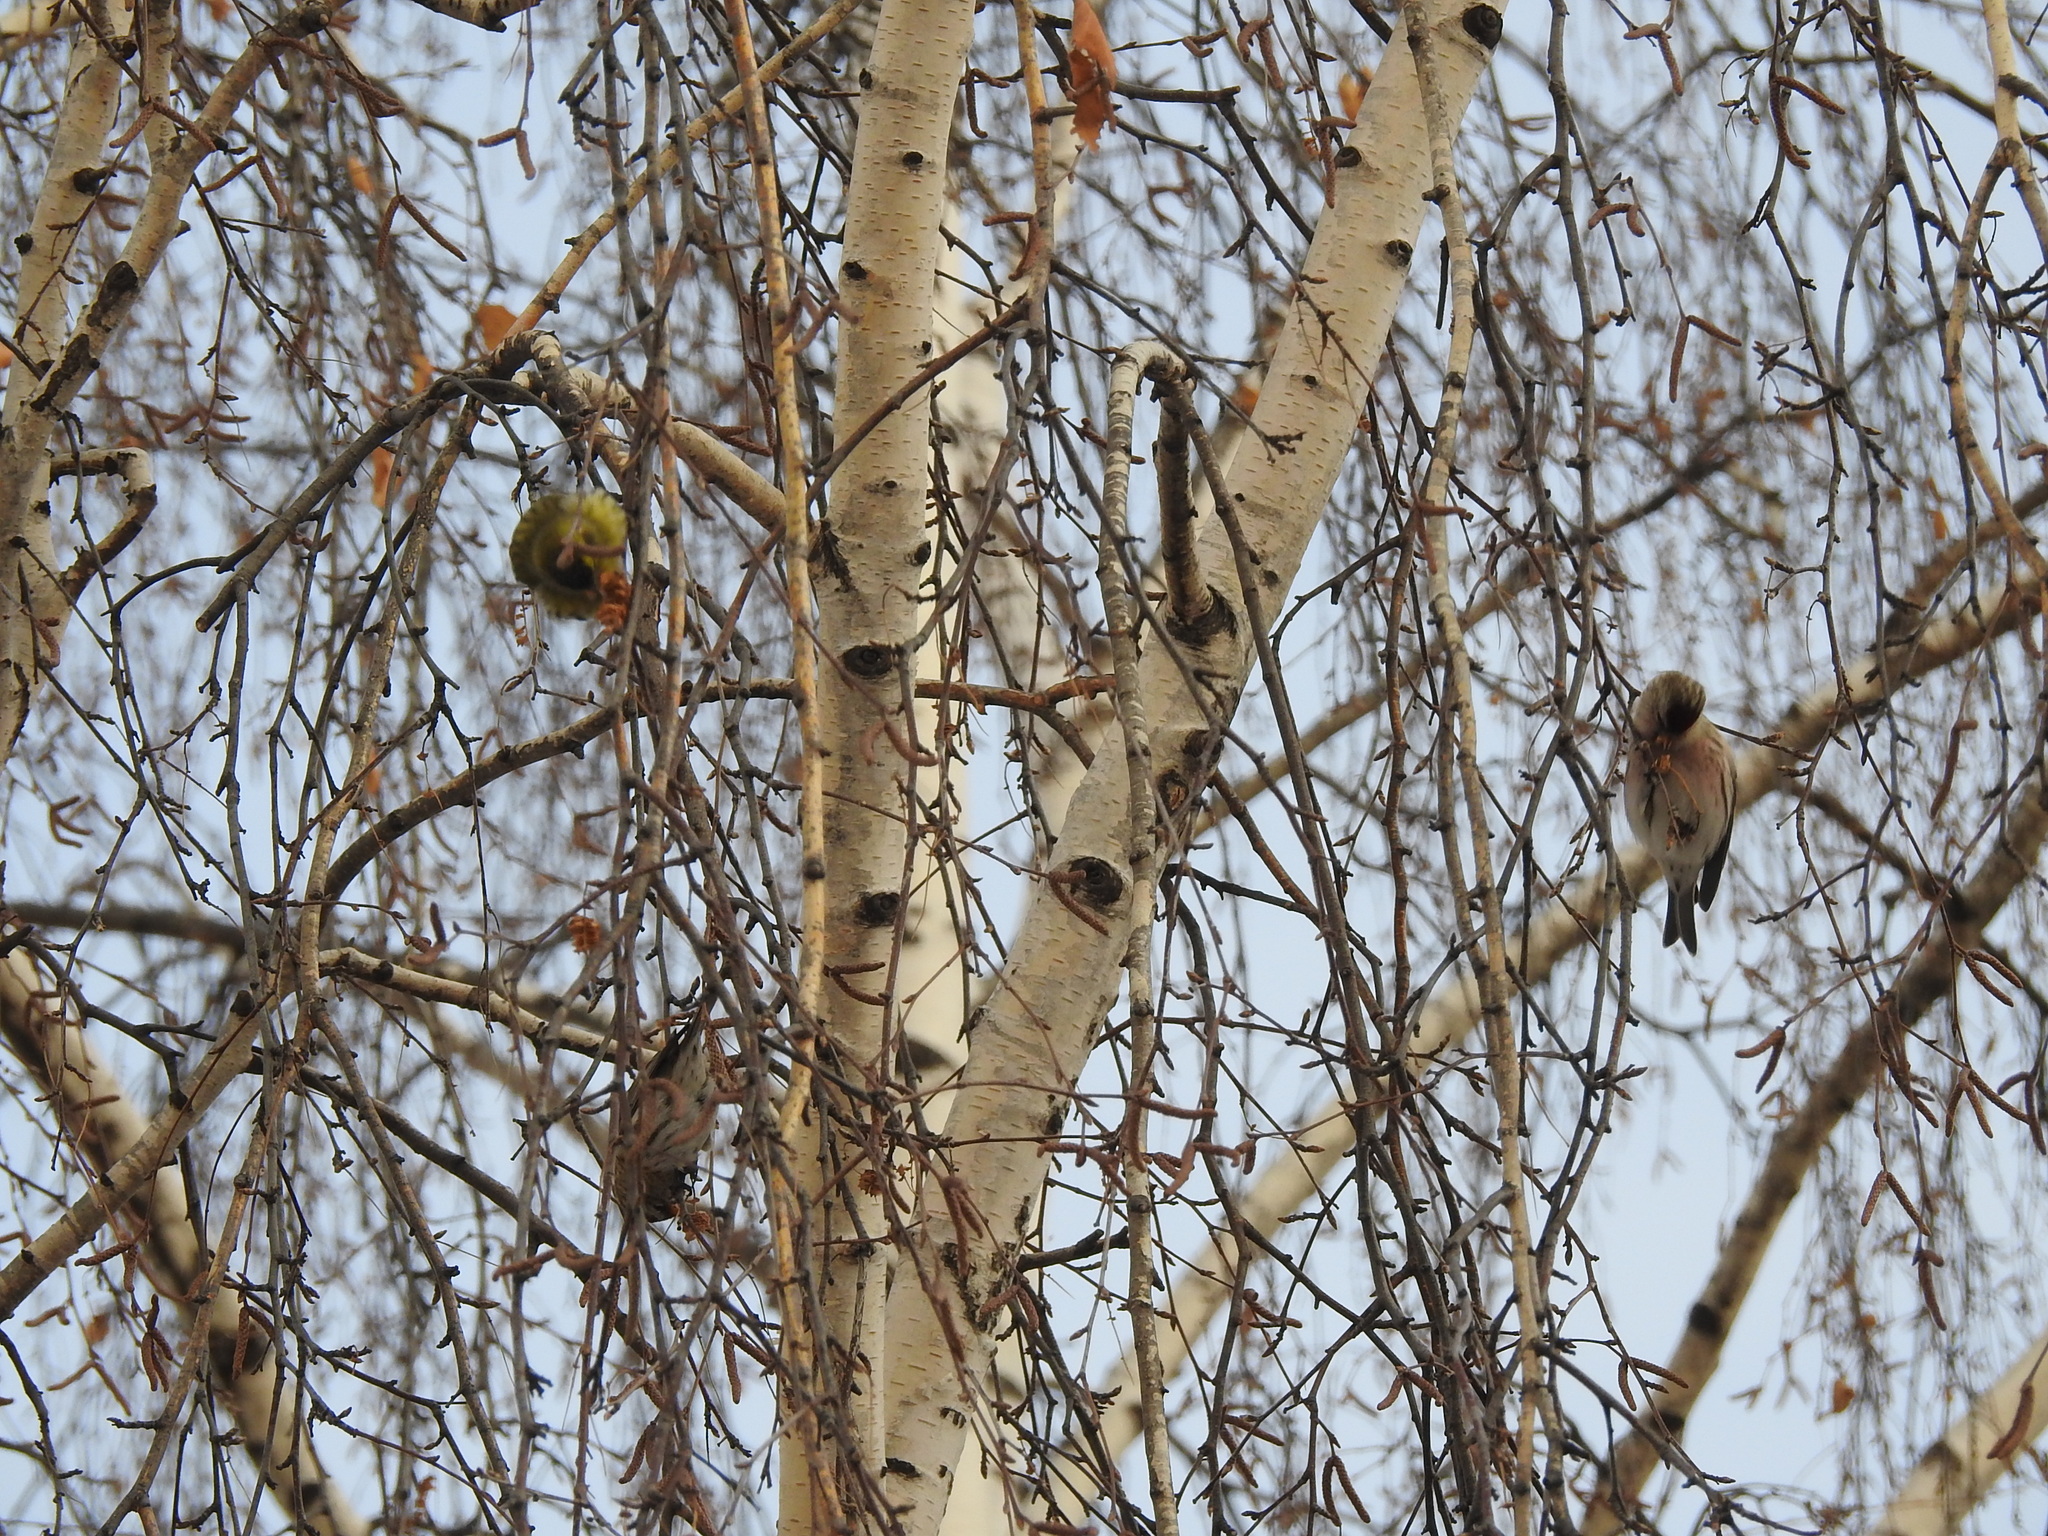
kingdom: Animalia
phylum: Chordata
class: Aves
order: Passeriformes
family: Fringillidae
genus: Acanthis
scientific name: Acanthis flammea
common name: Common redpoll
